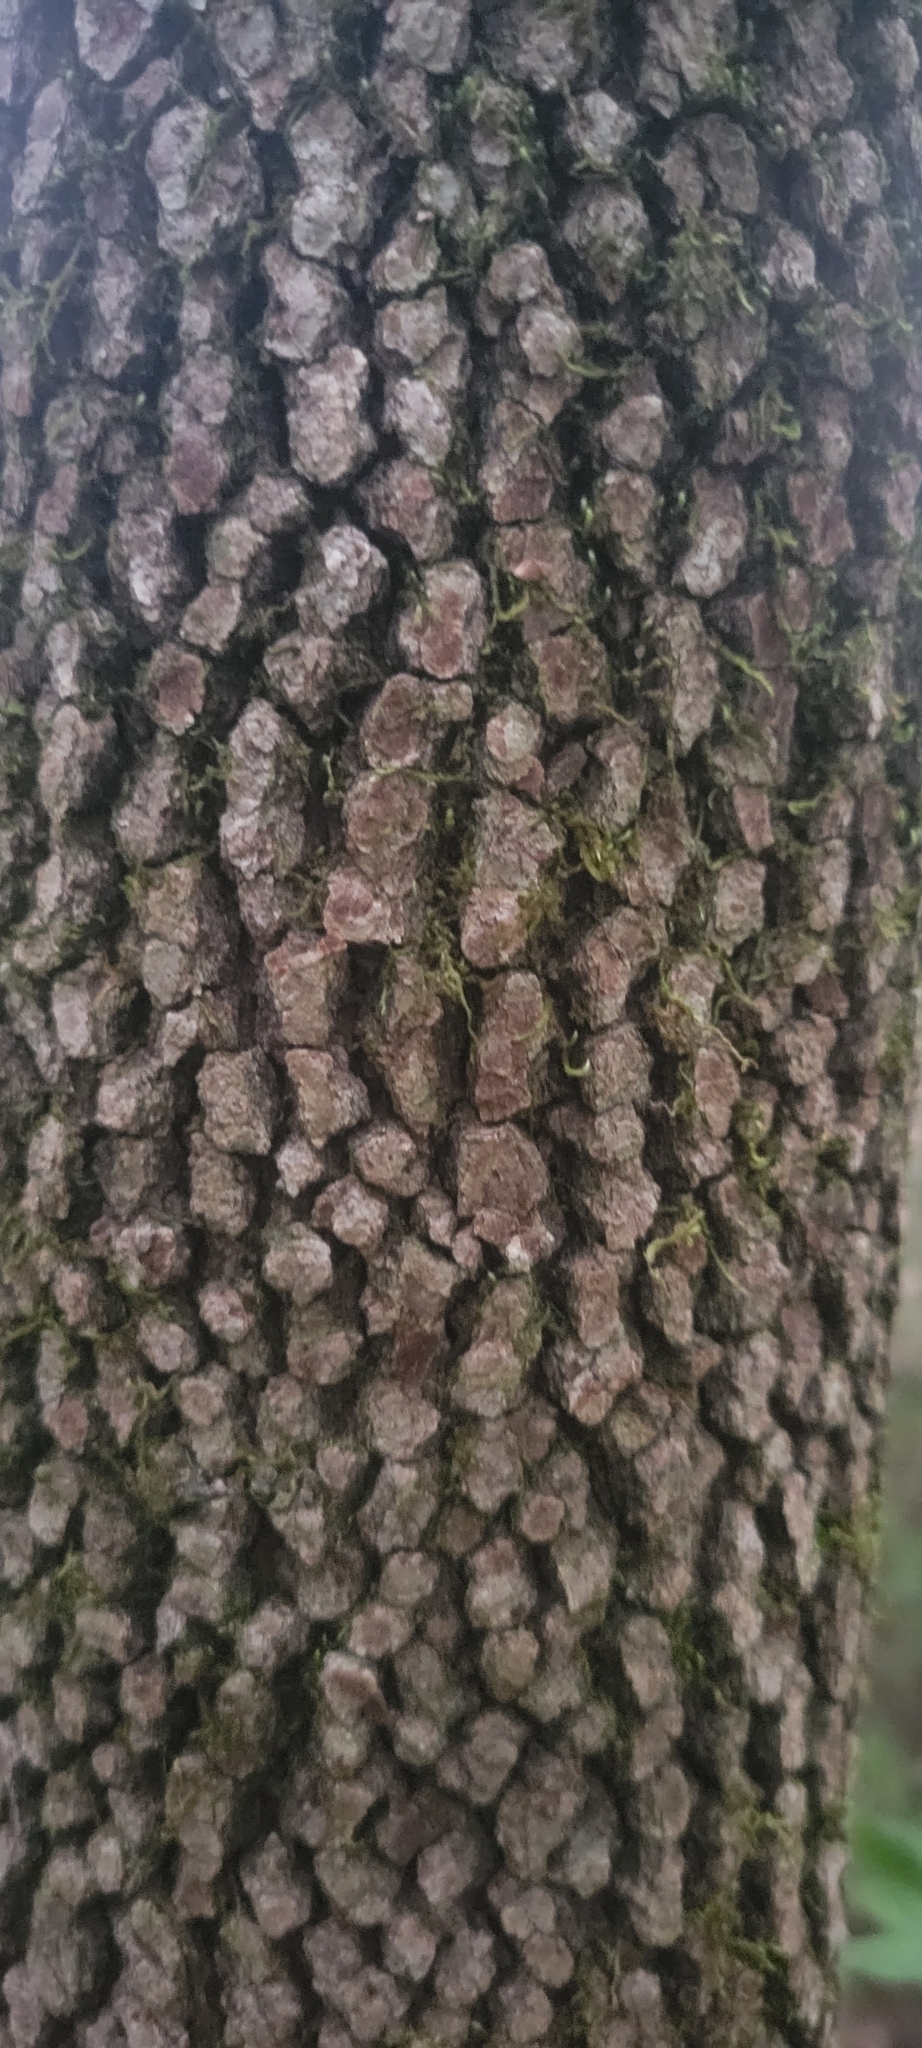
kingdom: Plantae
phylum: Tracheophyta
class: Magnoliopsida
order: Cornales
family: Cornaceae
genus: Cornus
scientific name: Cornus florida
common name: Flowering dogwood
